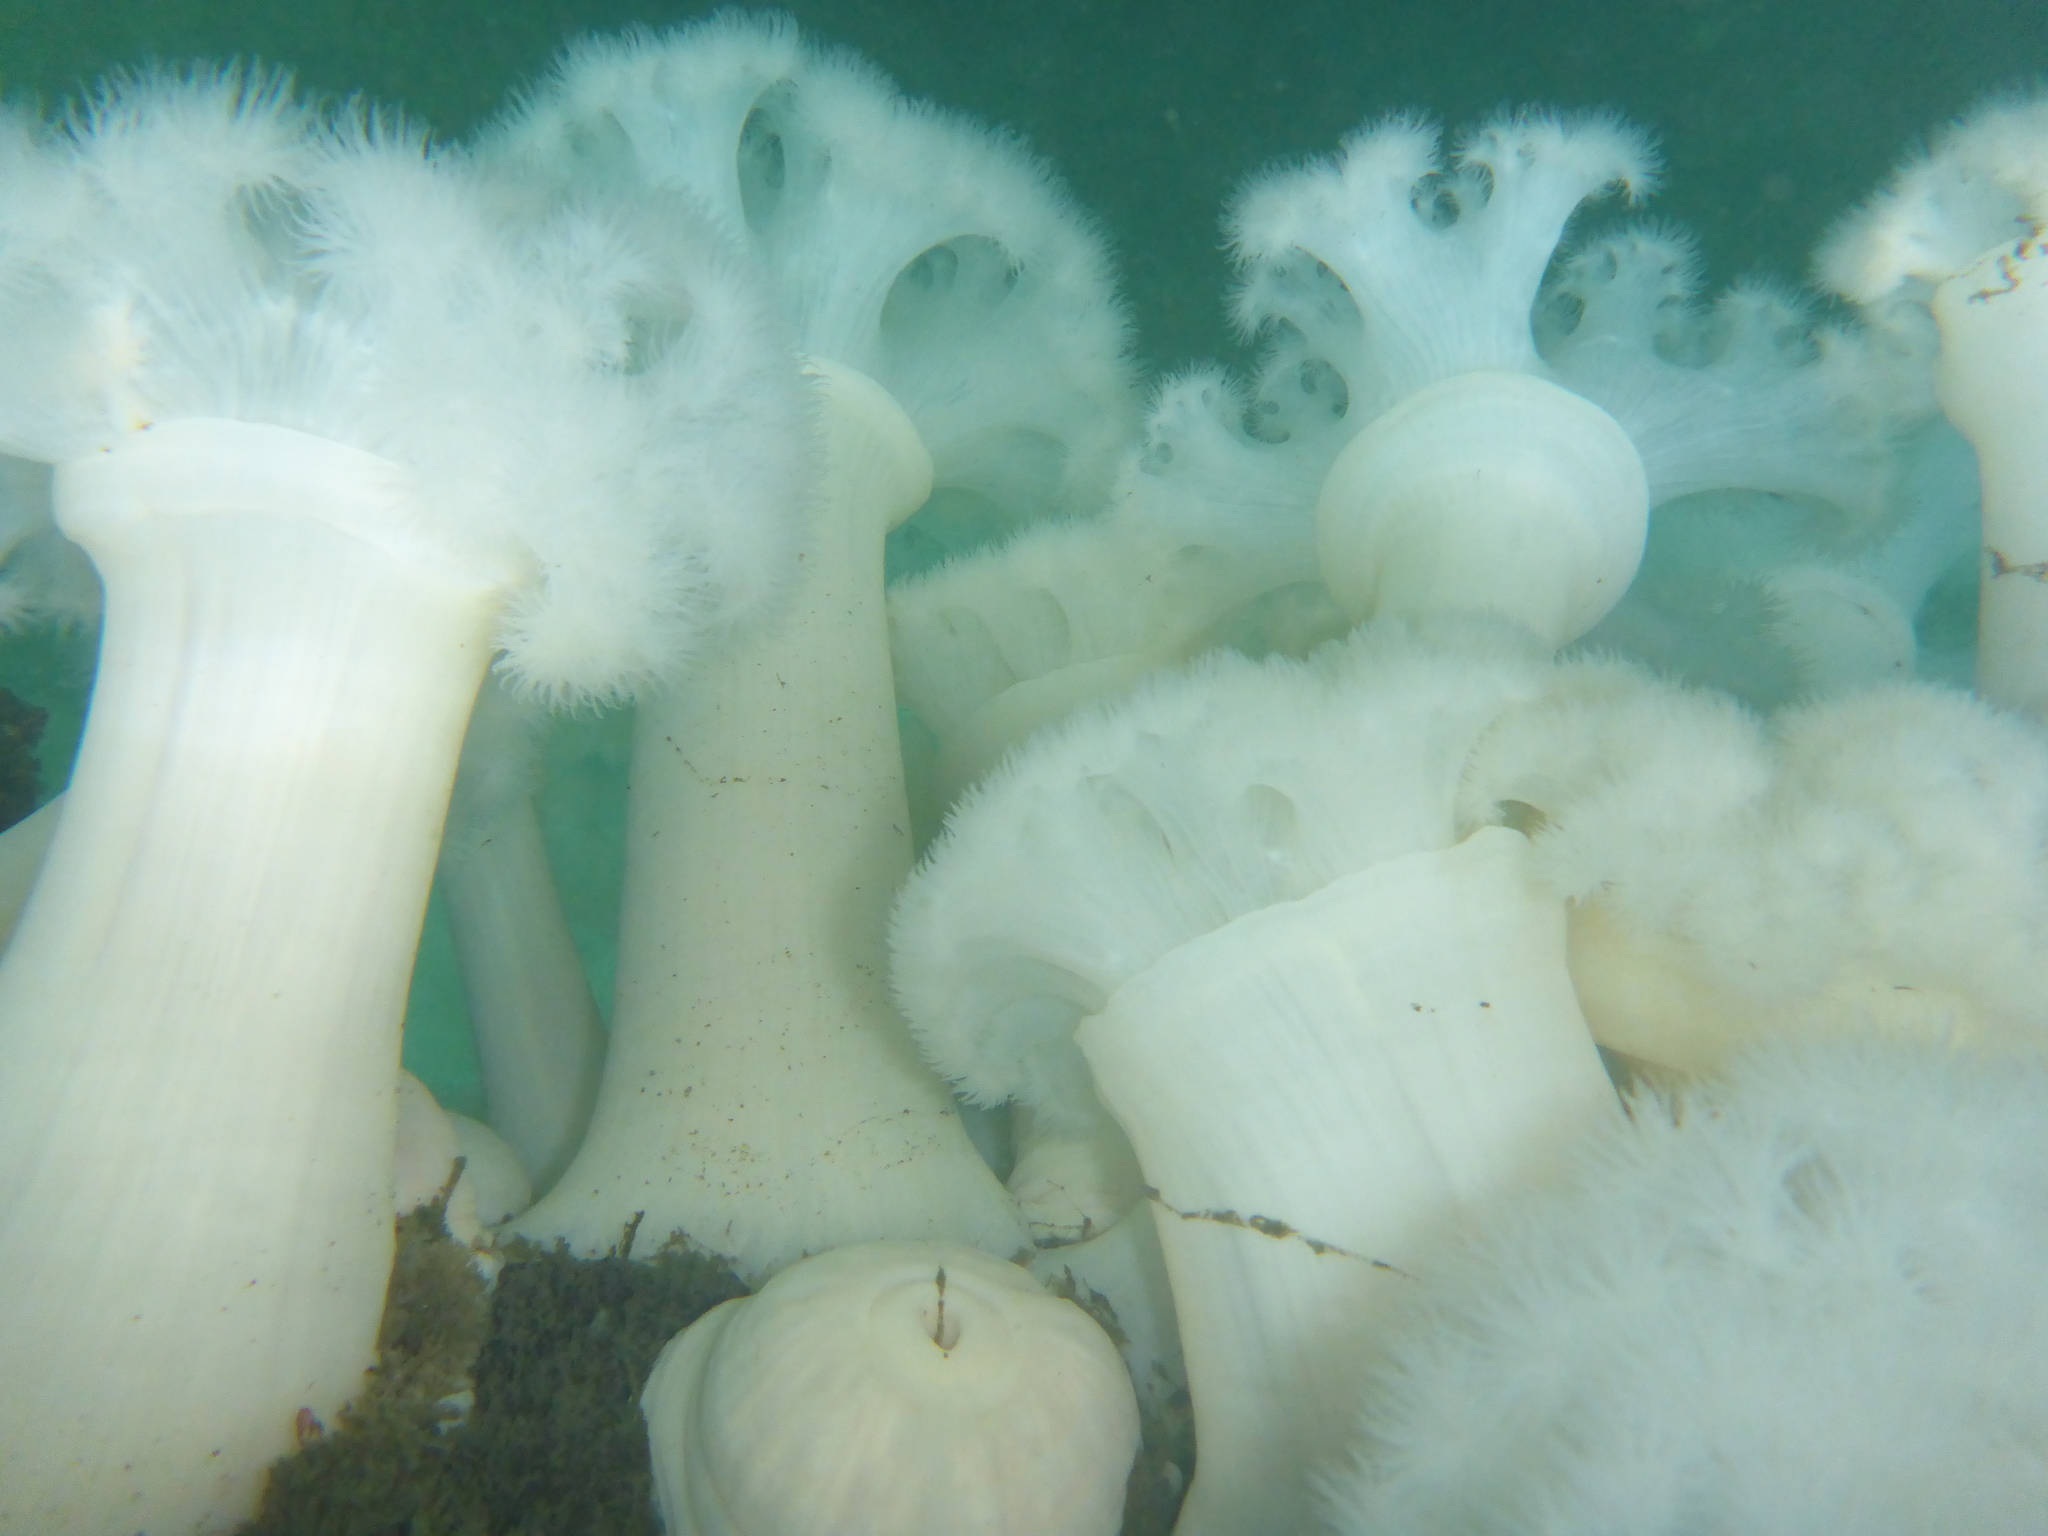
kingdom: Animalia
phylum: Cnidaria
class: Anthozoa
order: Actiniaria
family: Metridiidae
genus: Metridium
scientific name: Metridium farcimen
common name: Gigantic anemone
